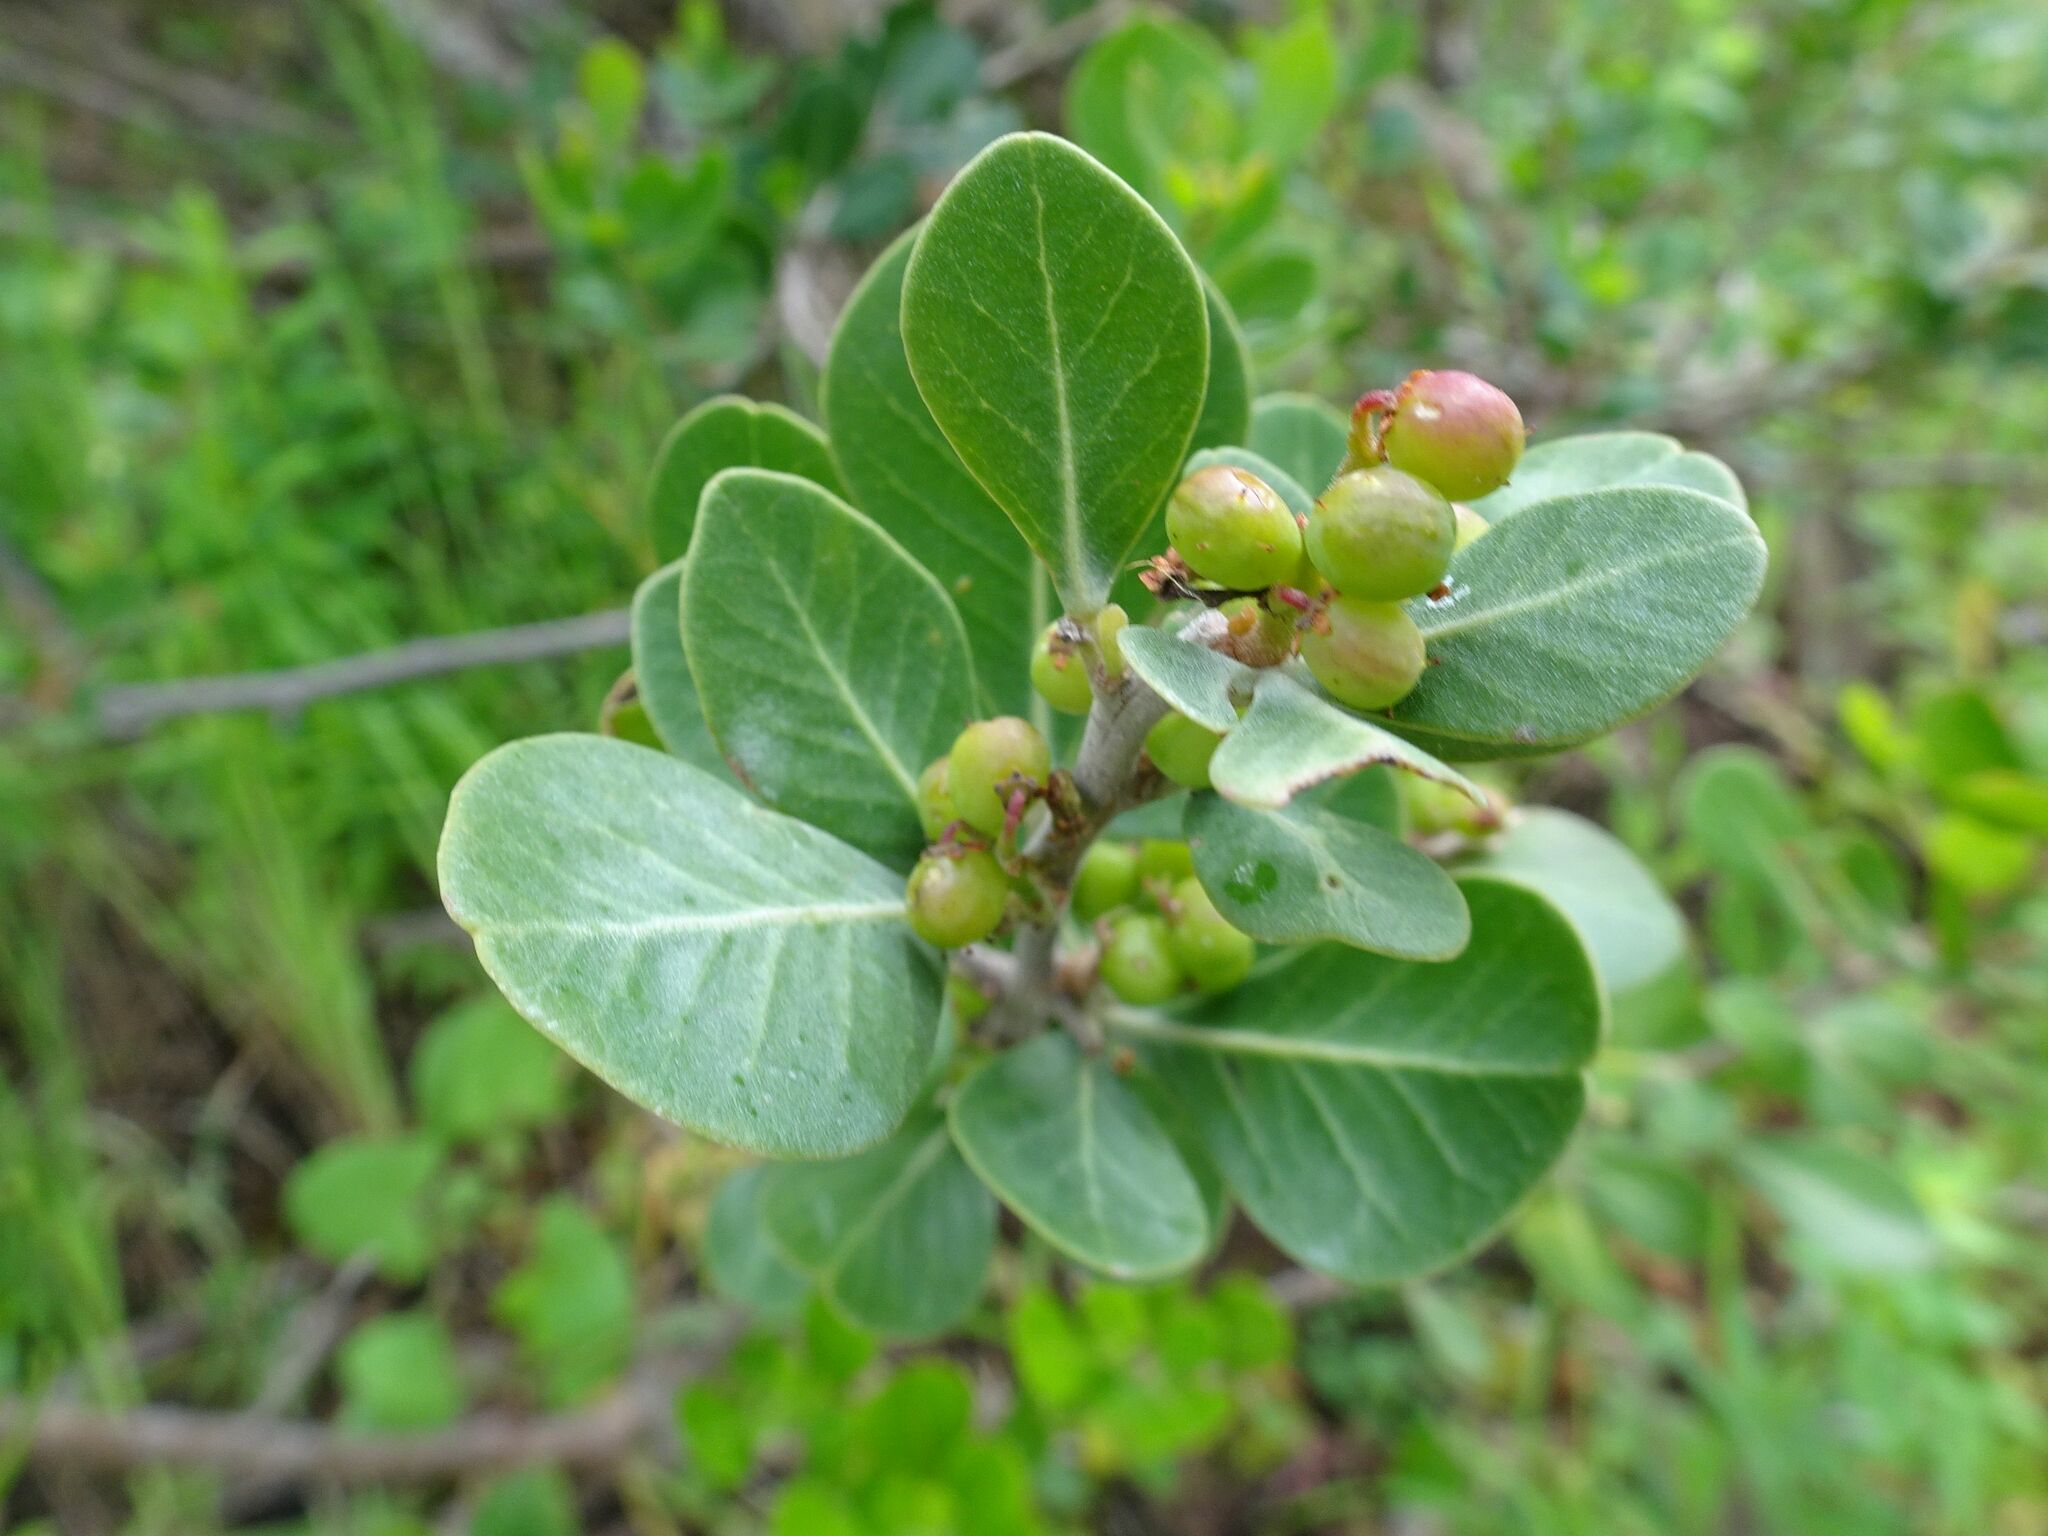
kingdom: Plantae
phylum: Tracheophyta
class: Magnoliopsida
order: Sapindales
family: Anacardiaceae
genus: Searsia
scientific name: Searsia lucida
